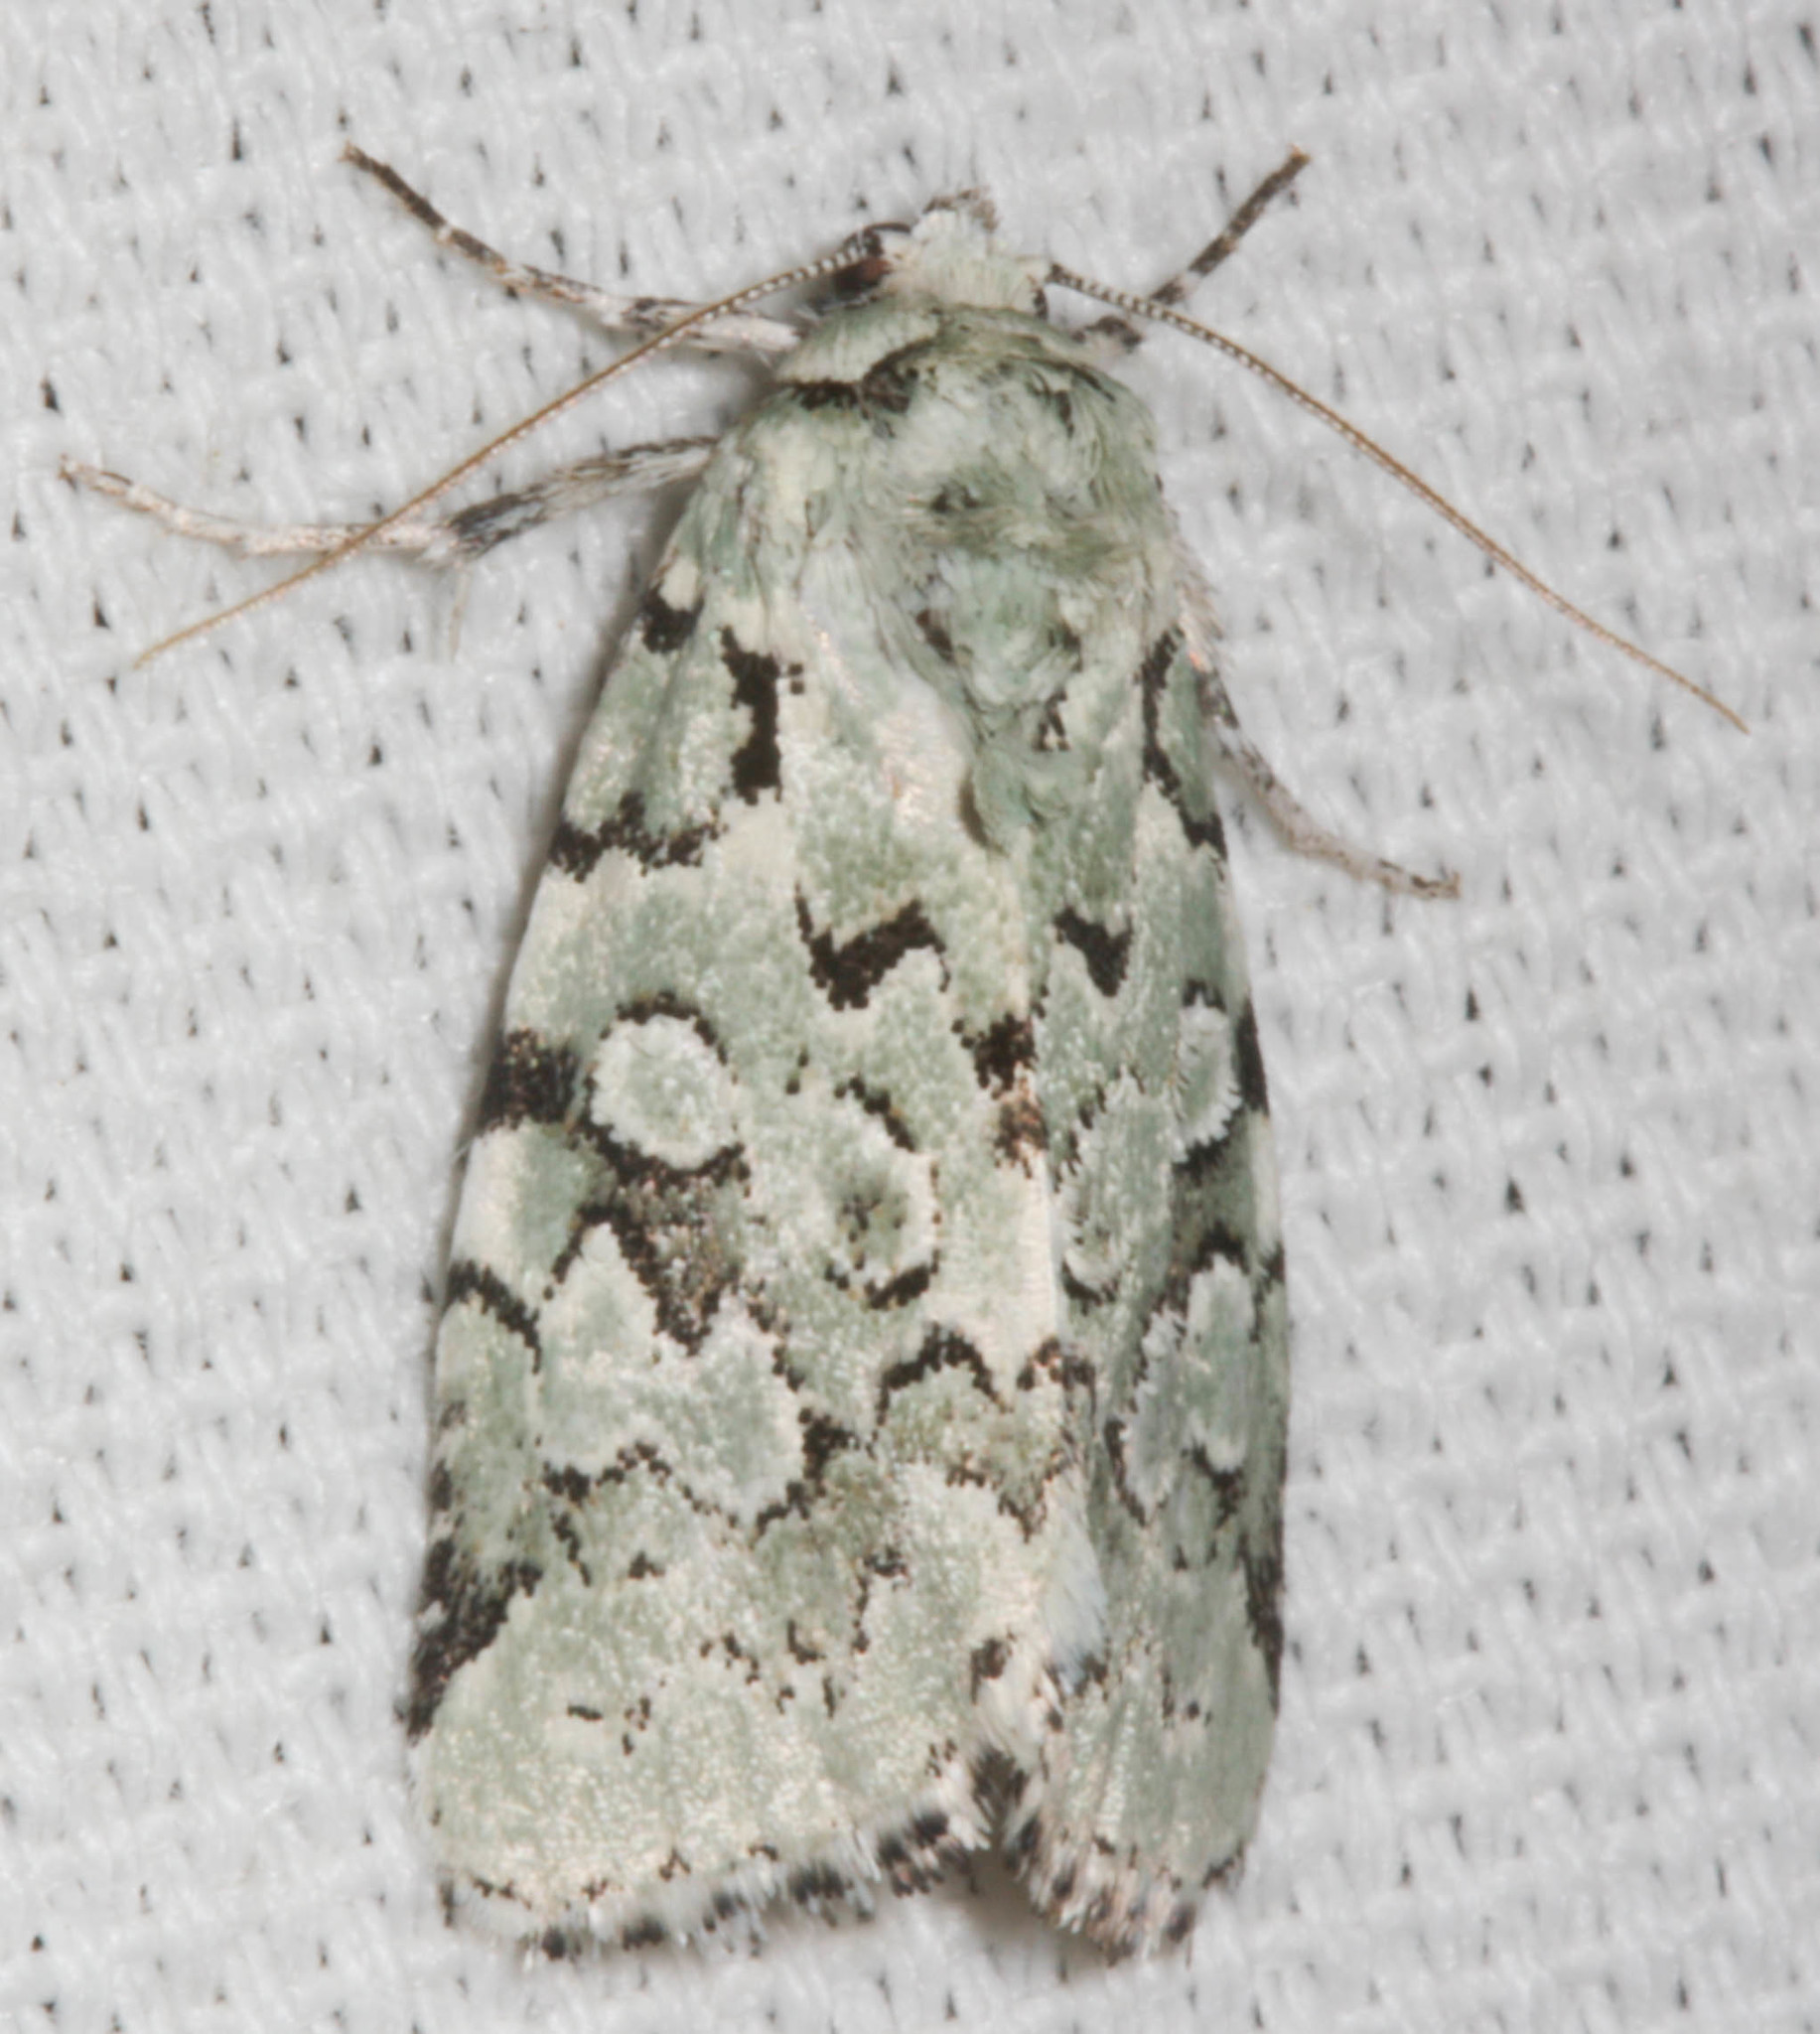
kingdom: Animalia
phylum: Arthropoda
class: Insecta
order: Lepidoptera
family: Noctuidae
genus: Bryolymnia
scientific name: Bryolymnia viridata
